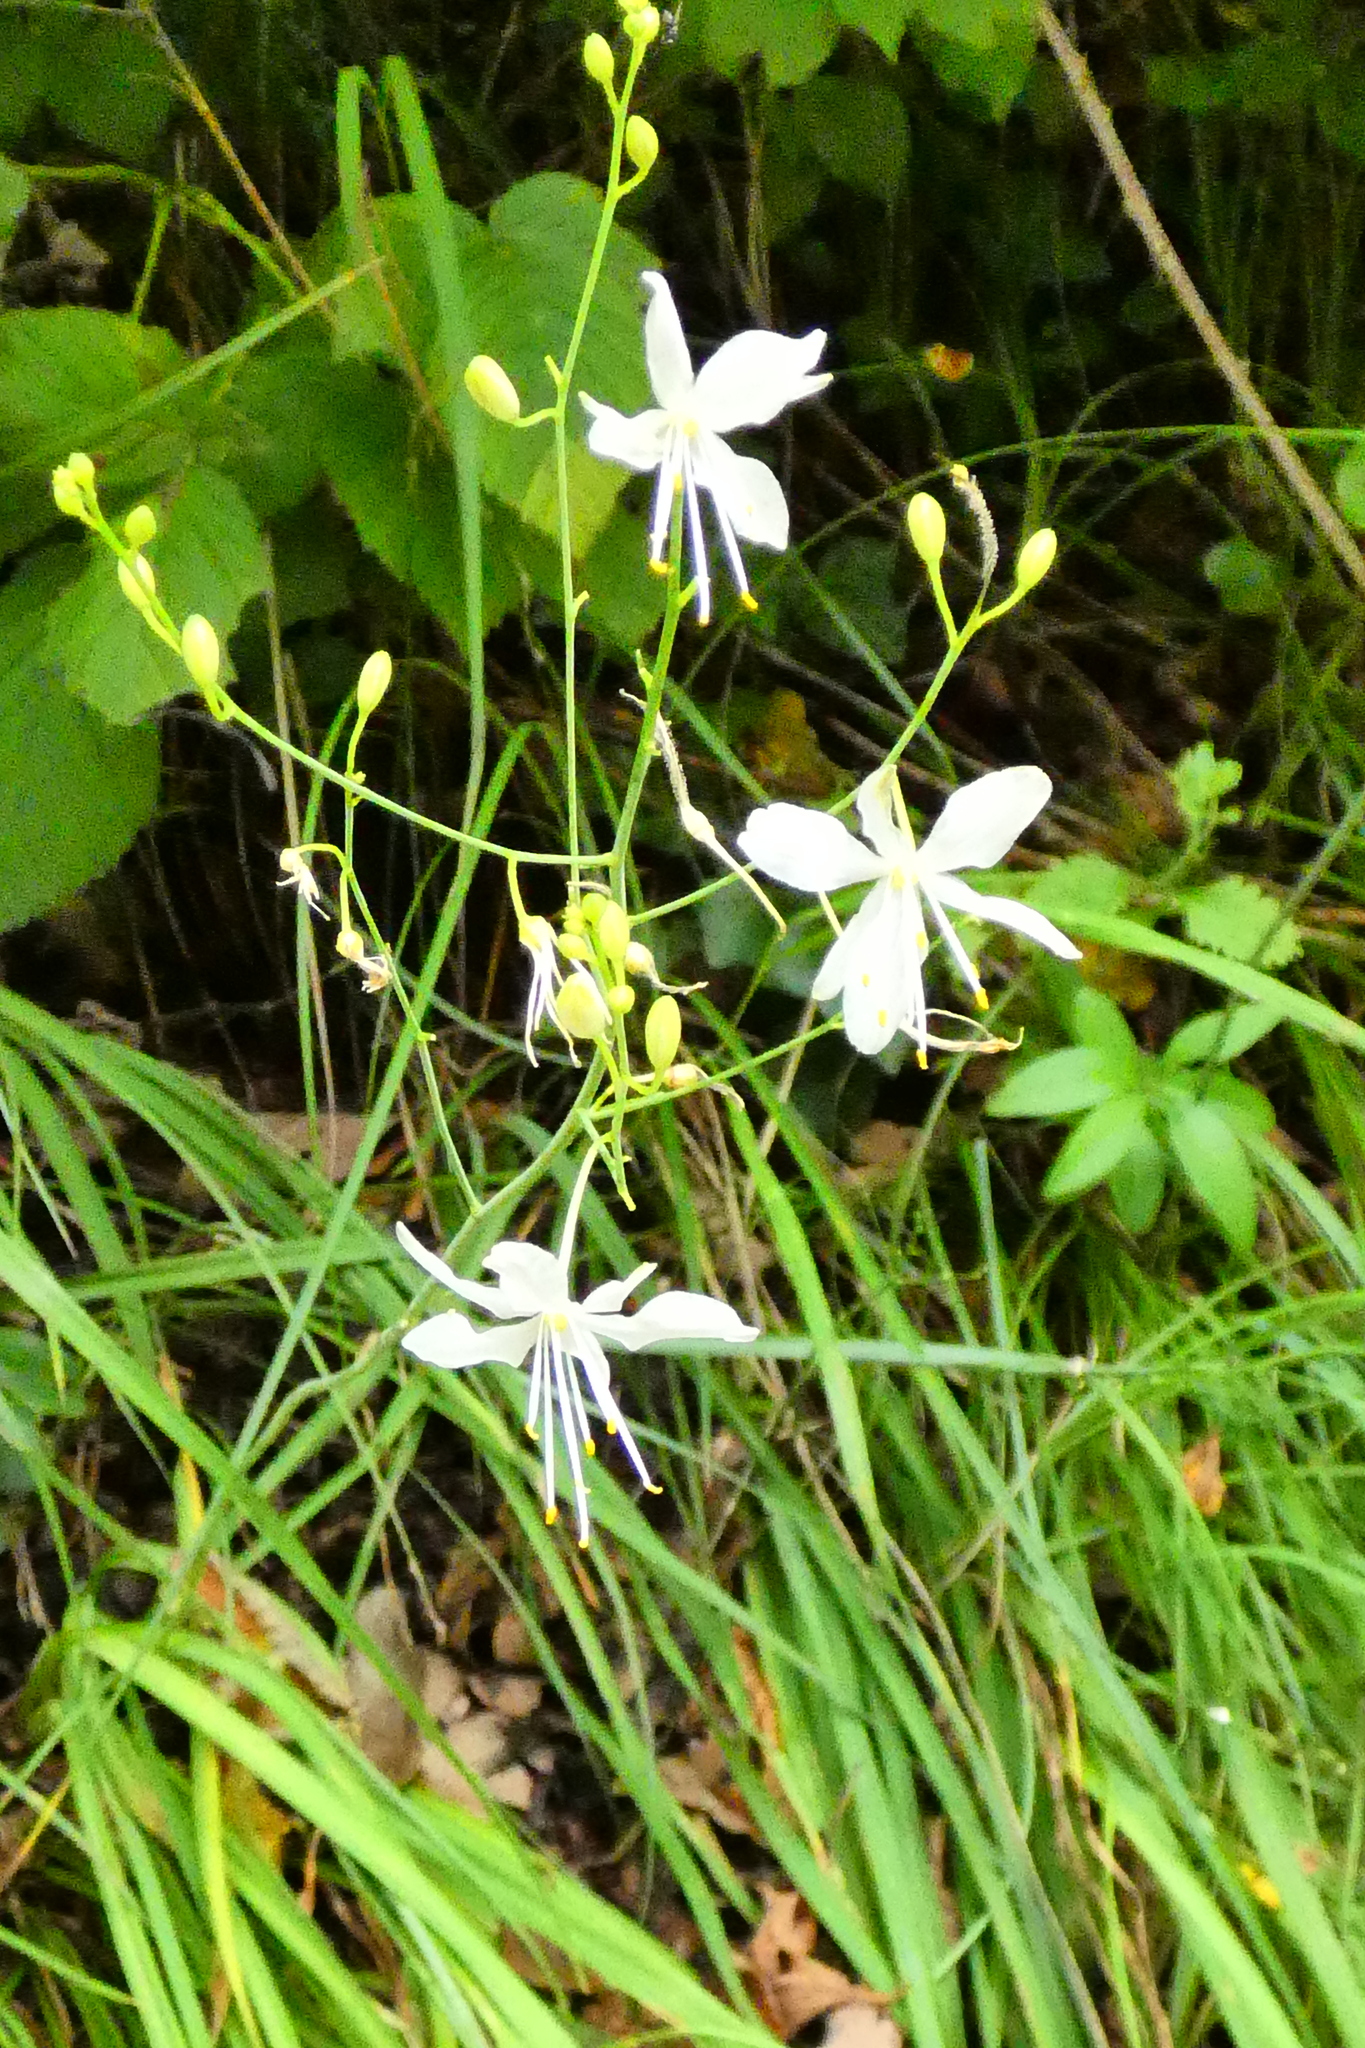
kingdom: Plantae
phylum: Tracheophyta
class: Liliopsida
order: Asparagales
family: Asparagaceae
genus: Anthericum
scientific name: Anthericum ramosum
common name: Branched st. bernard's-lily
